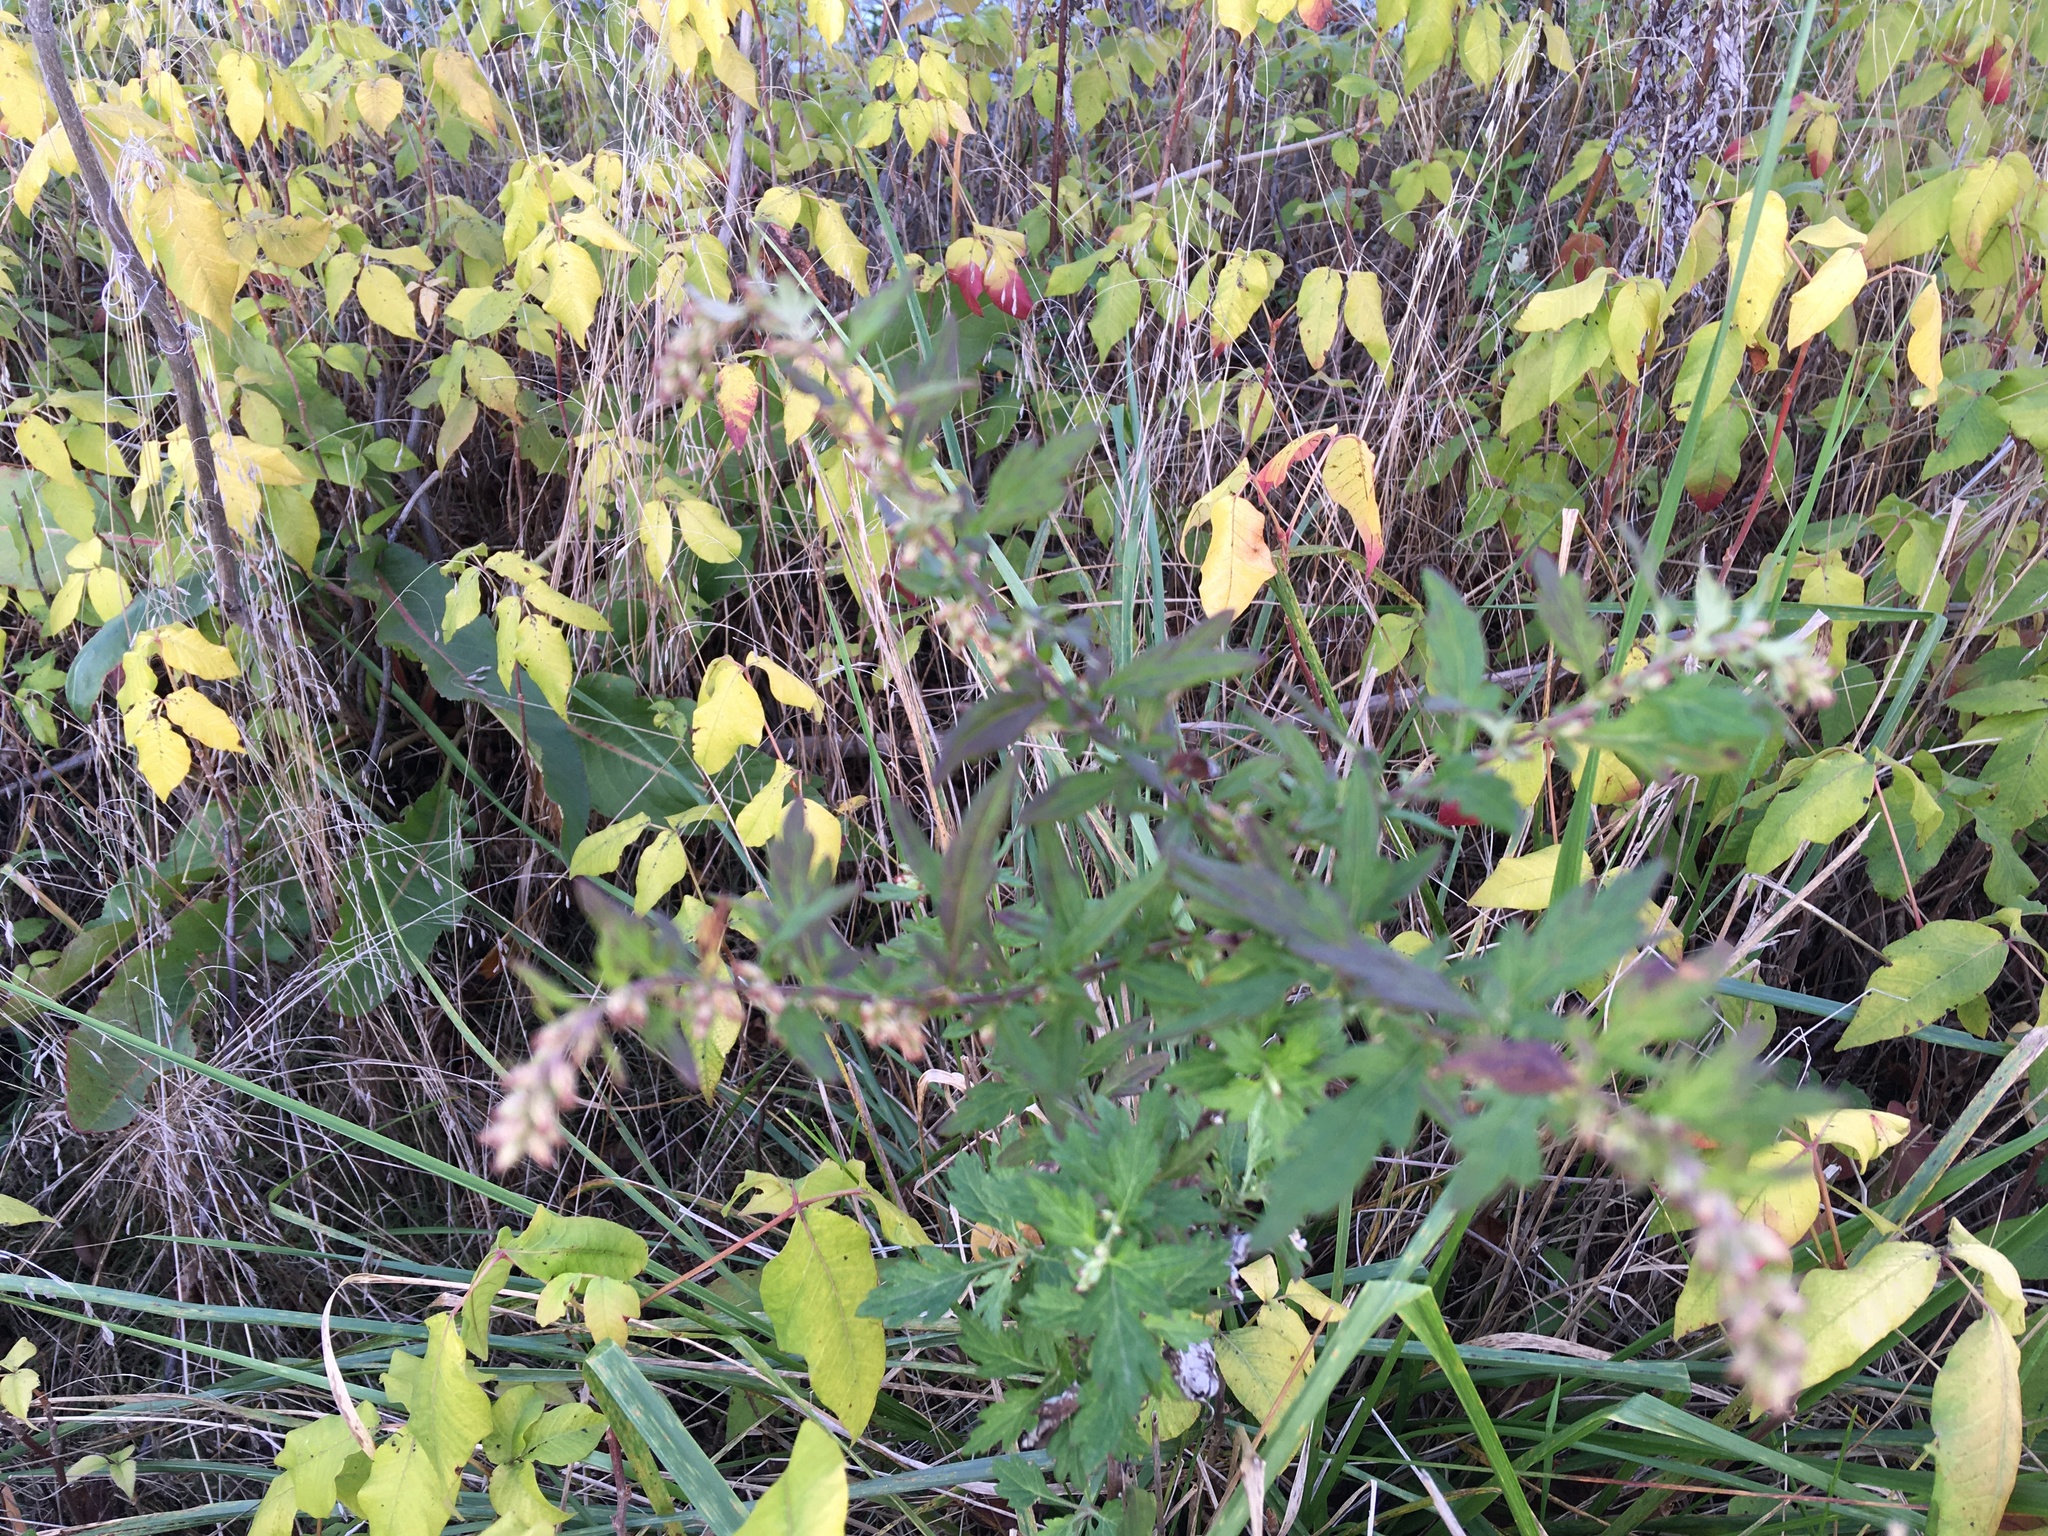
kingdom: Plantae
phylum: Tracheophyta
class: Magnoliopsida
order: Asterales
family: Asteraceae
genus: Artemisia
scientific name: Artemisia vulgaris
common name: Mugwort
